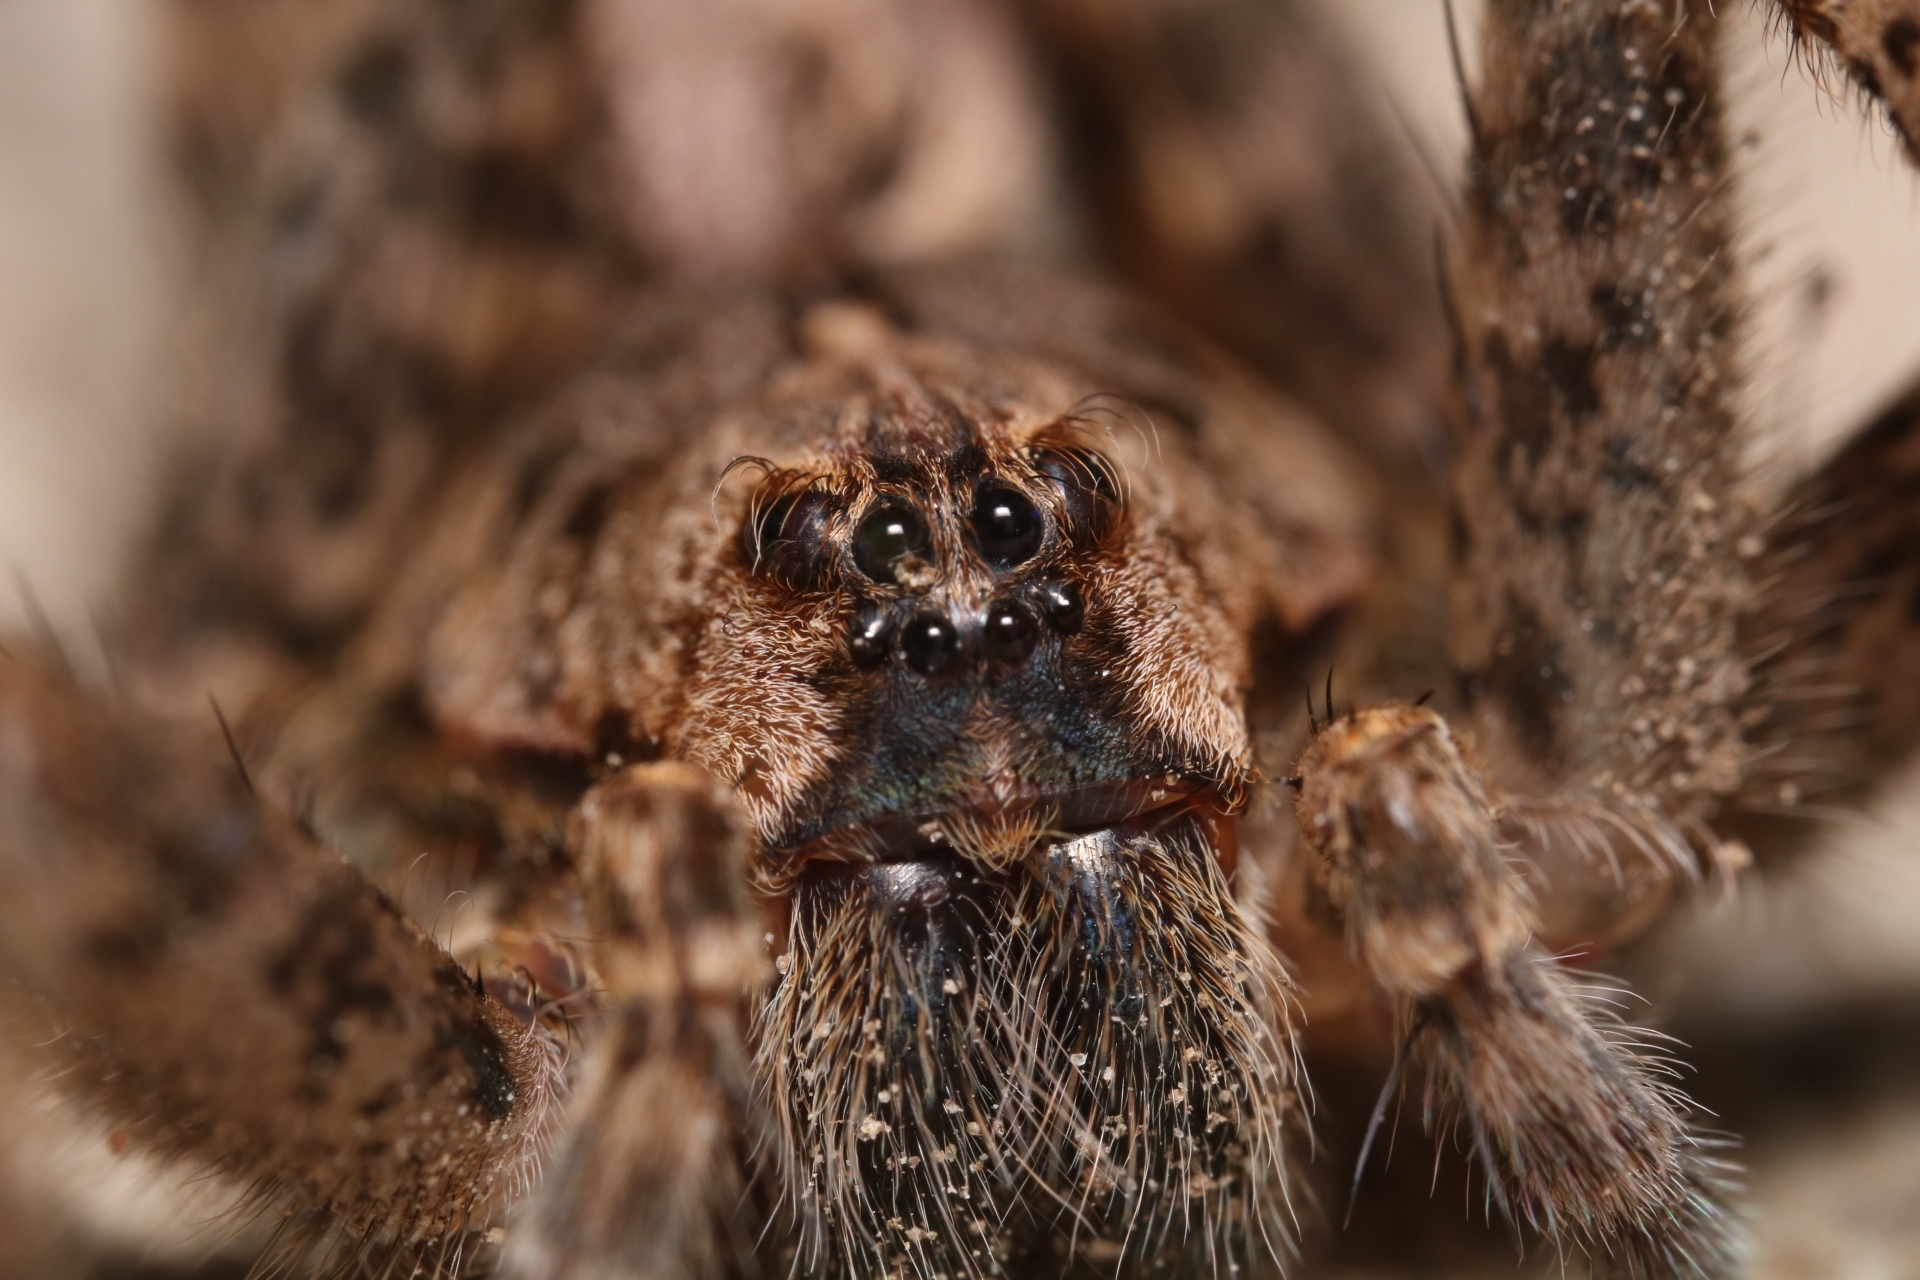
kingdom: Animalia
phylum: Arthropoda
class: Arachnida
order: Araneae
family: Pisauridae
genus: Dolomedes
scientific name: Dolomedes tenebrosus
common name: Dark fishing spider
